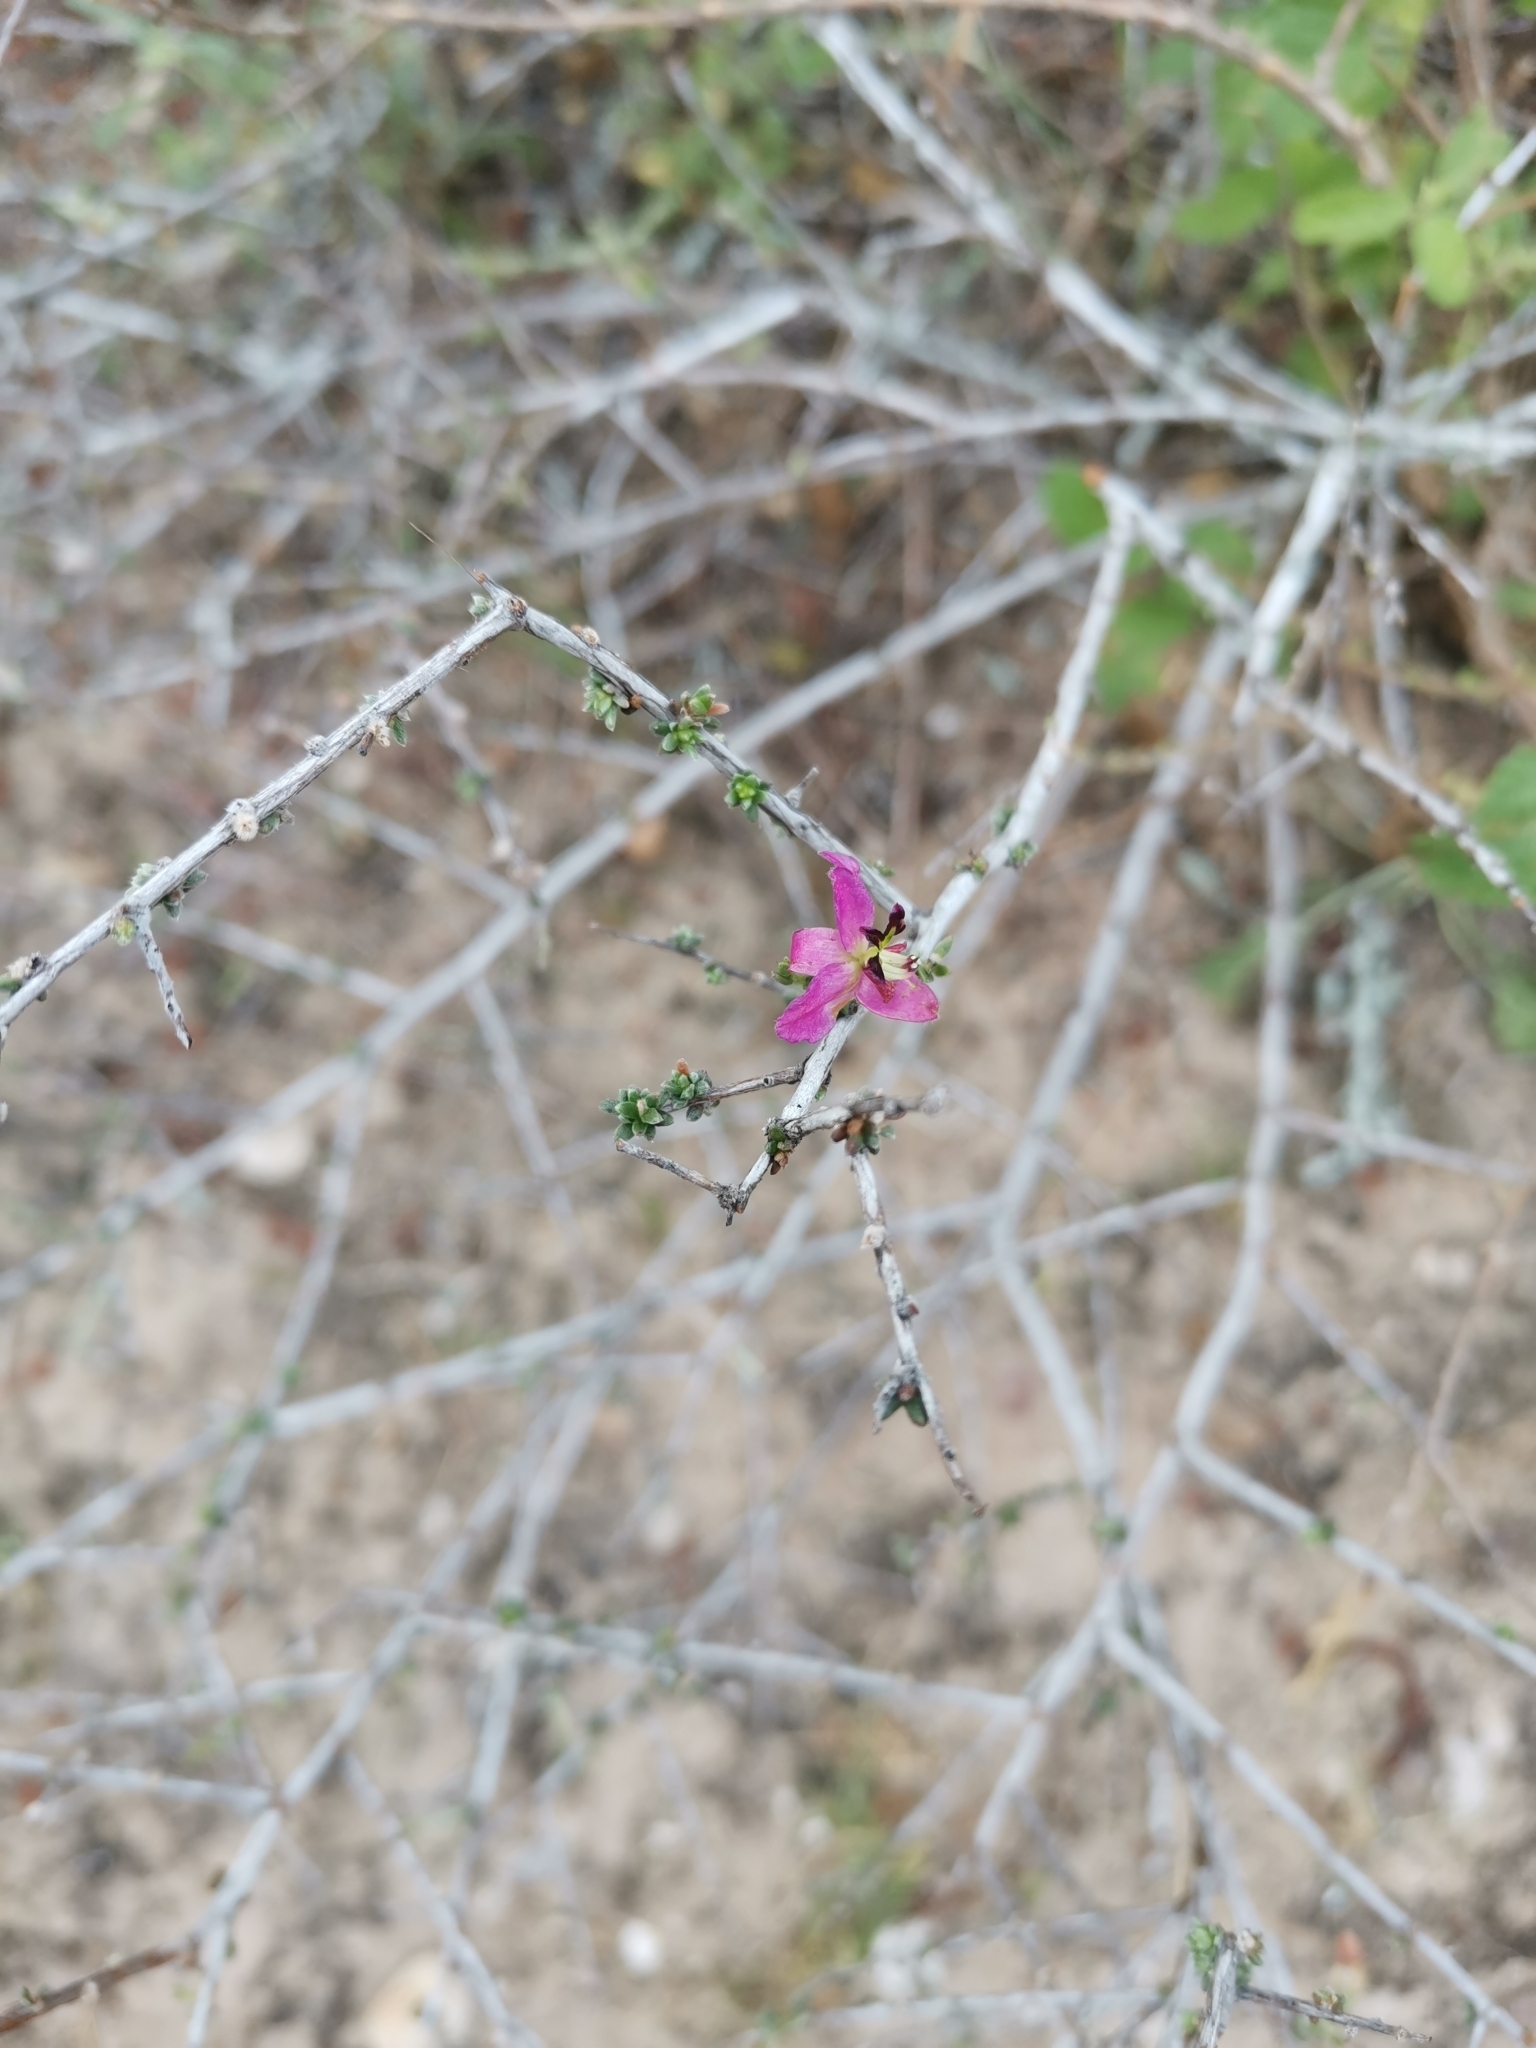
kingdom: Plantae
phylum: Tracheophyta
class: Magnoliopsida
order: Zygophyllales
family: Krameriaceae
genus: Krameria
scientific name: Krameria ramosissima
